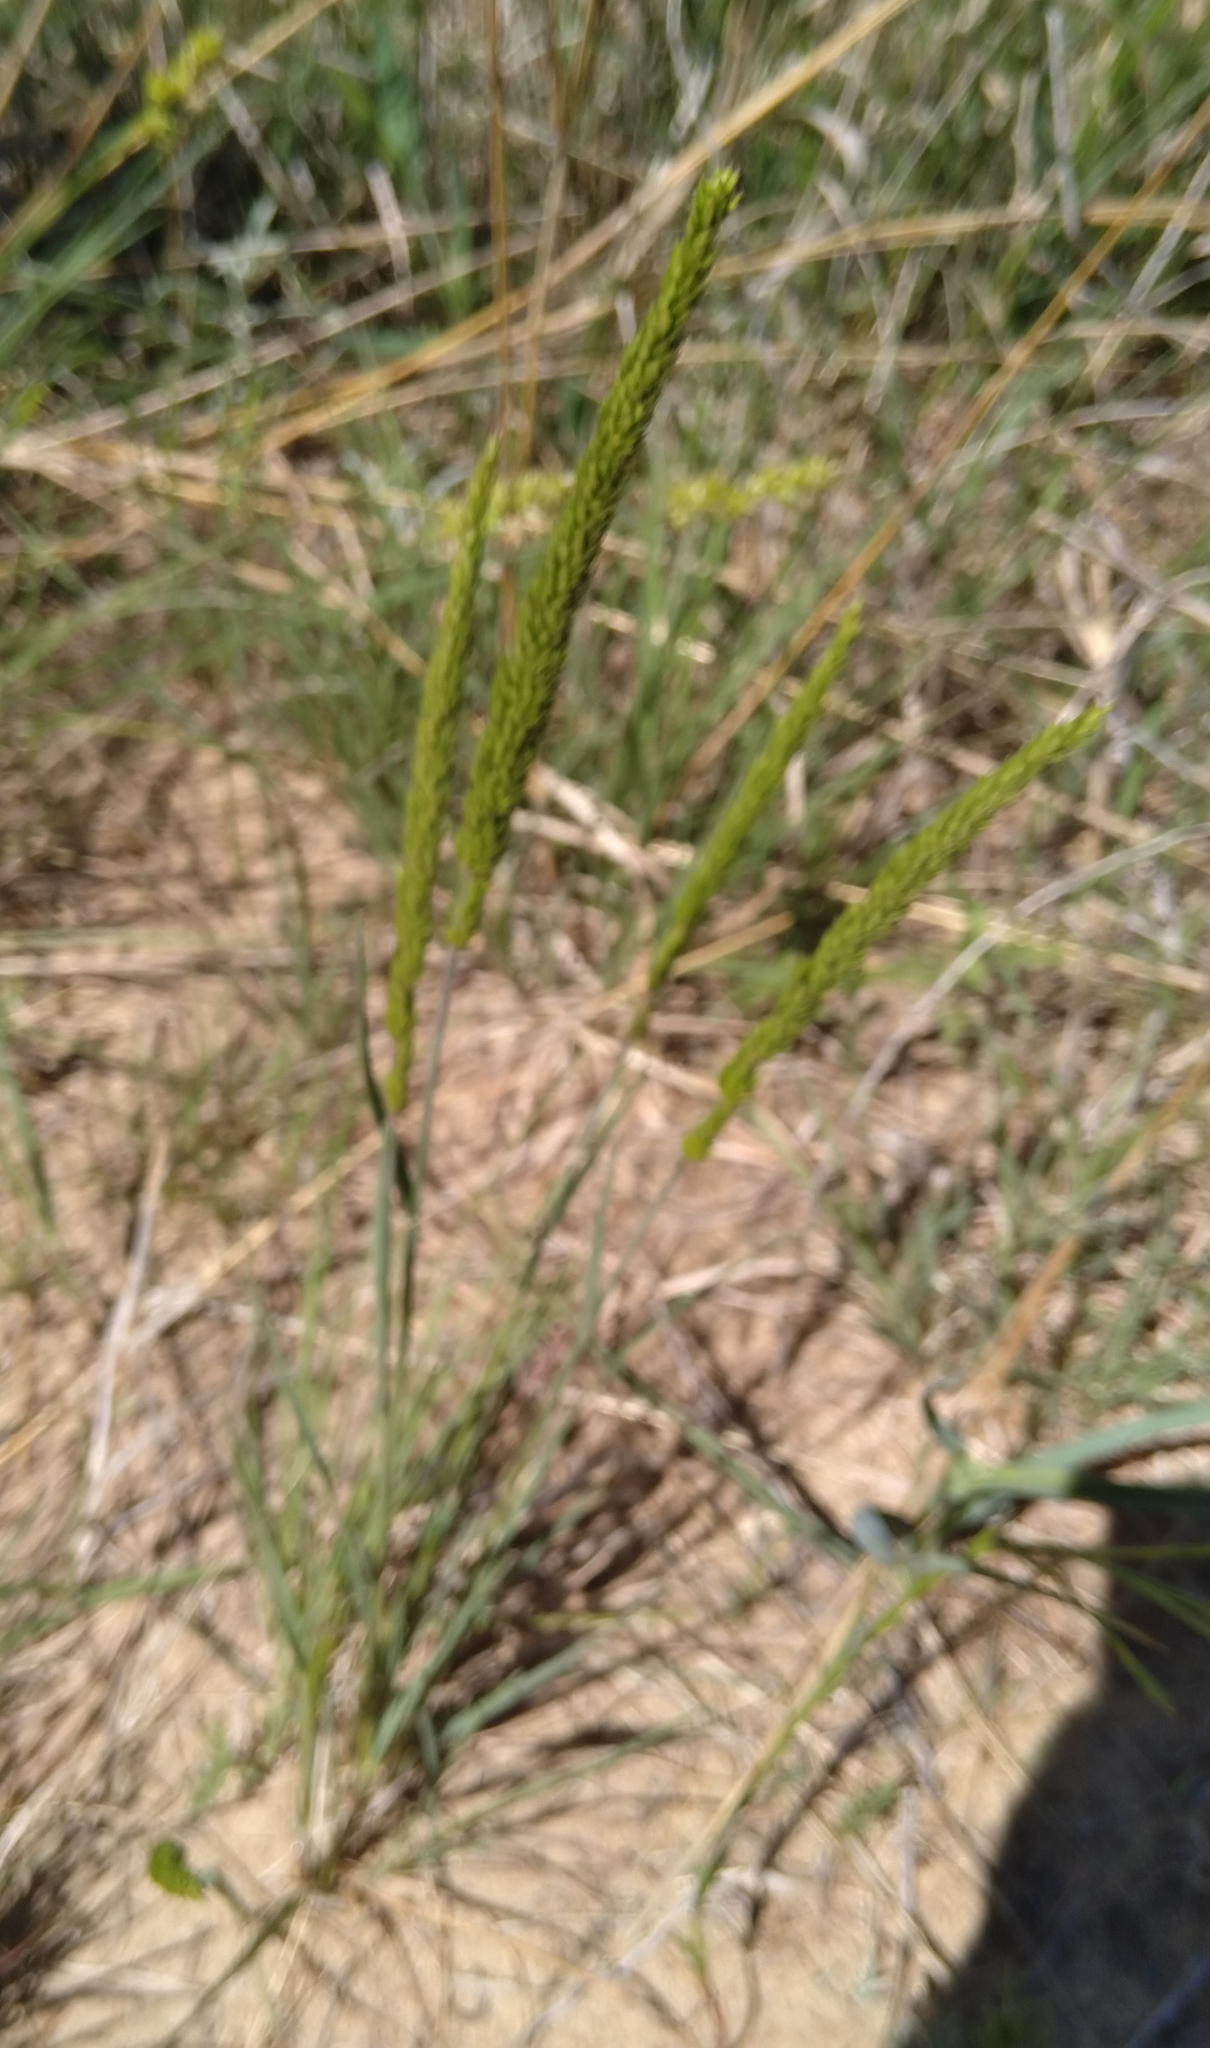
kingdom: Plantae
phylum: Tracheophyta
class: Liliopsida
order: Poales
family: Poaceae
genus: Koeleria
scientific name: Koeleria macrantha
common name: Crested hair-grass
